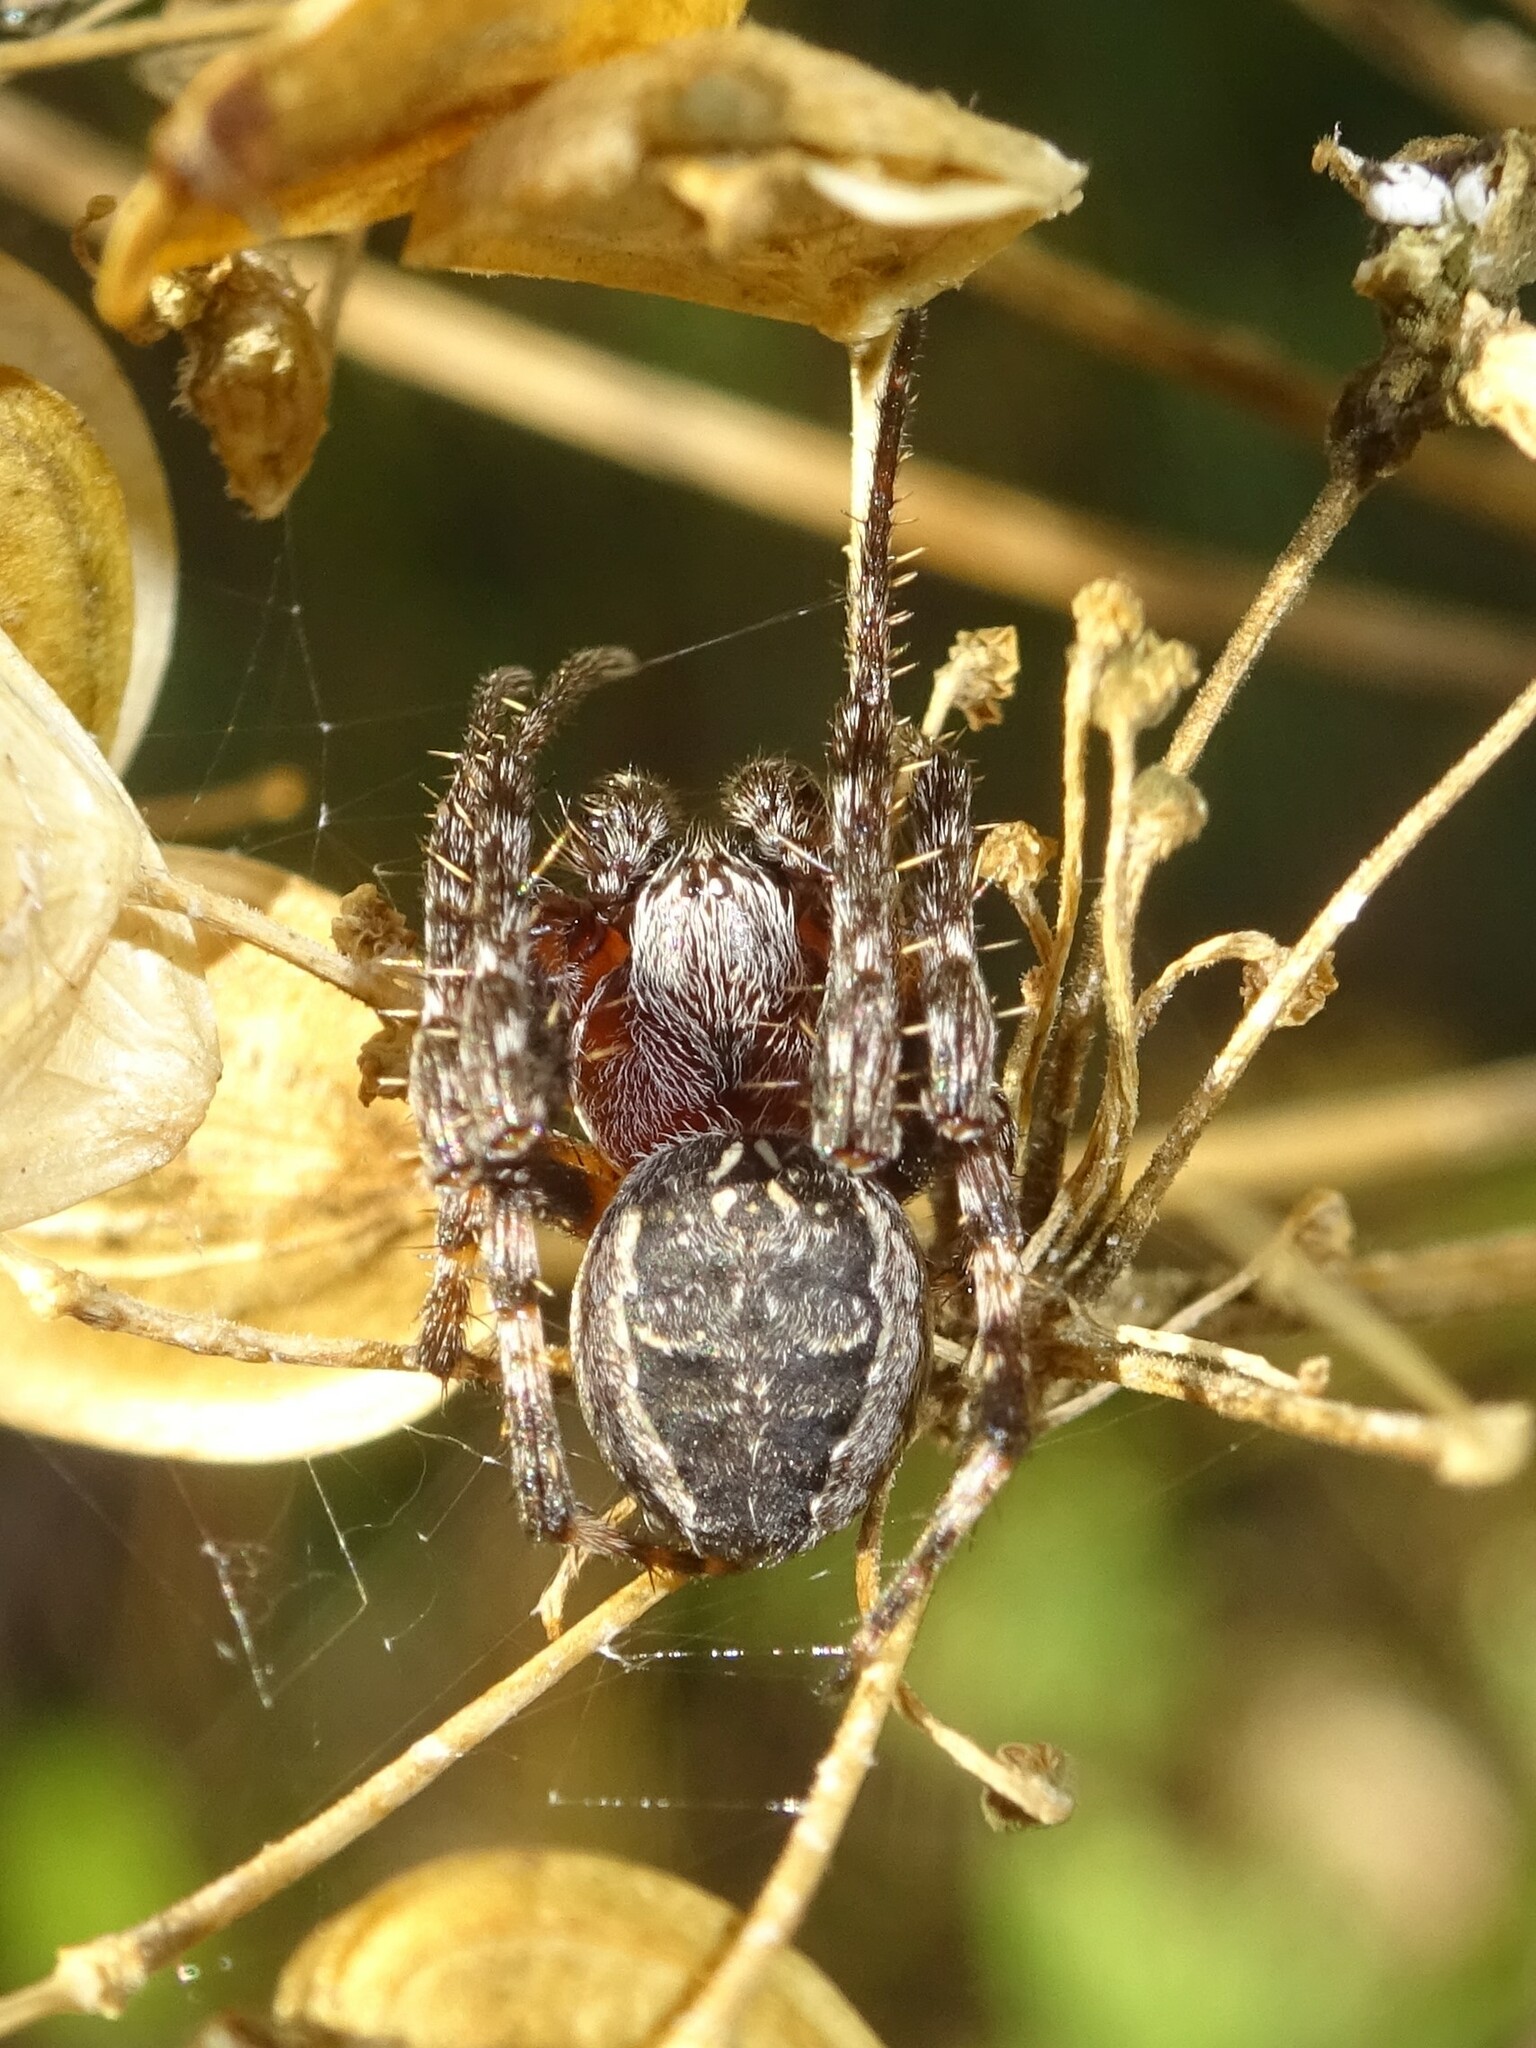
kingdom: Animalia
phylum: Arthropoda
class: Arachnida
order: Araneae
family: Araneidae
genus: Larinioides
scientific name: Larinioides patagiatus
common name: Ornamental orbweaver
